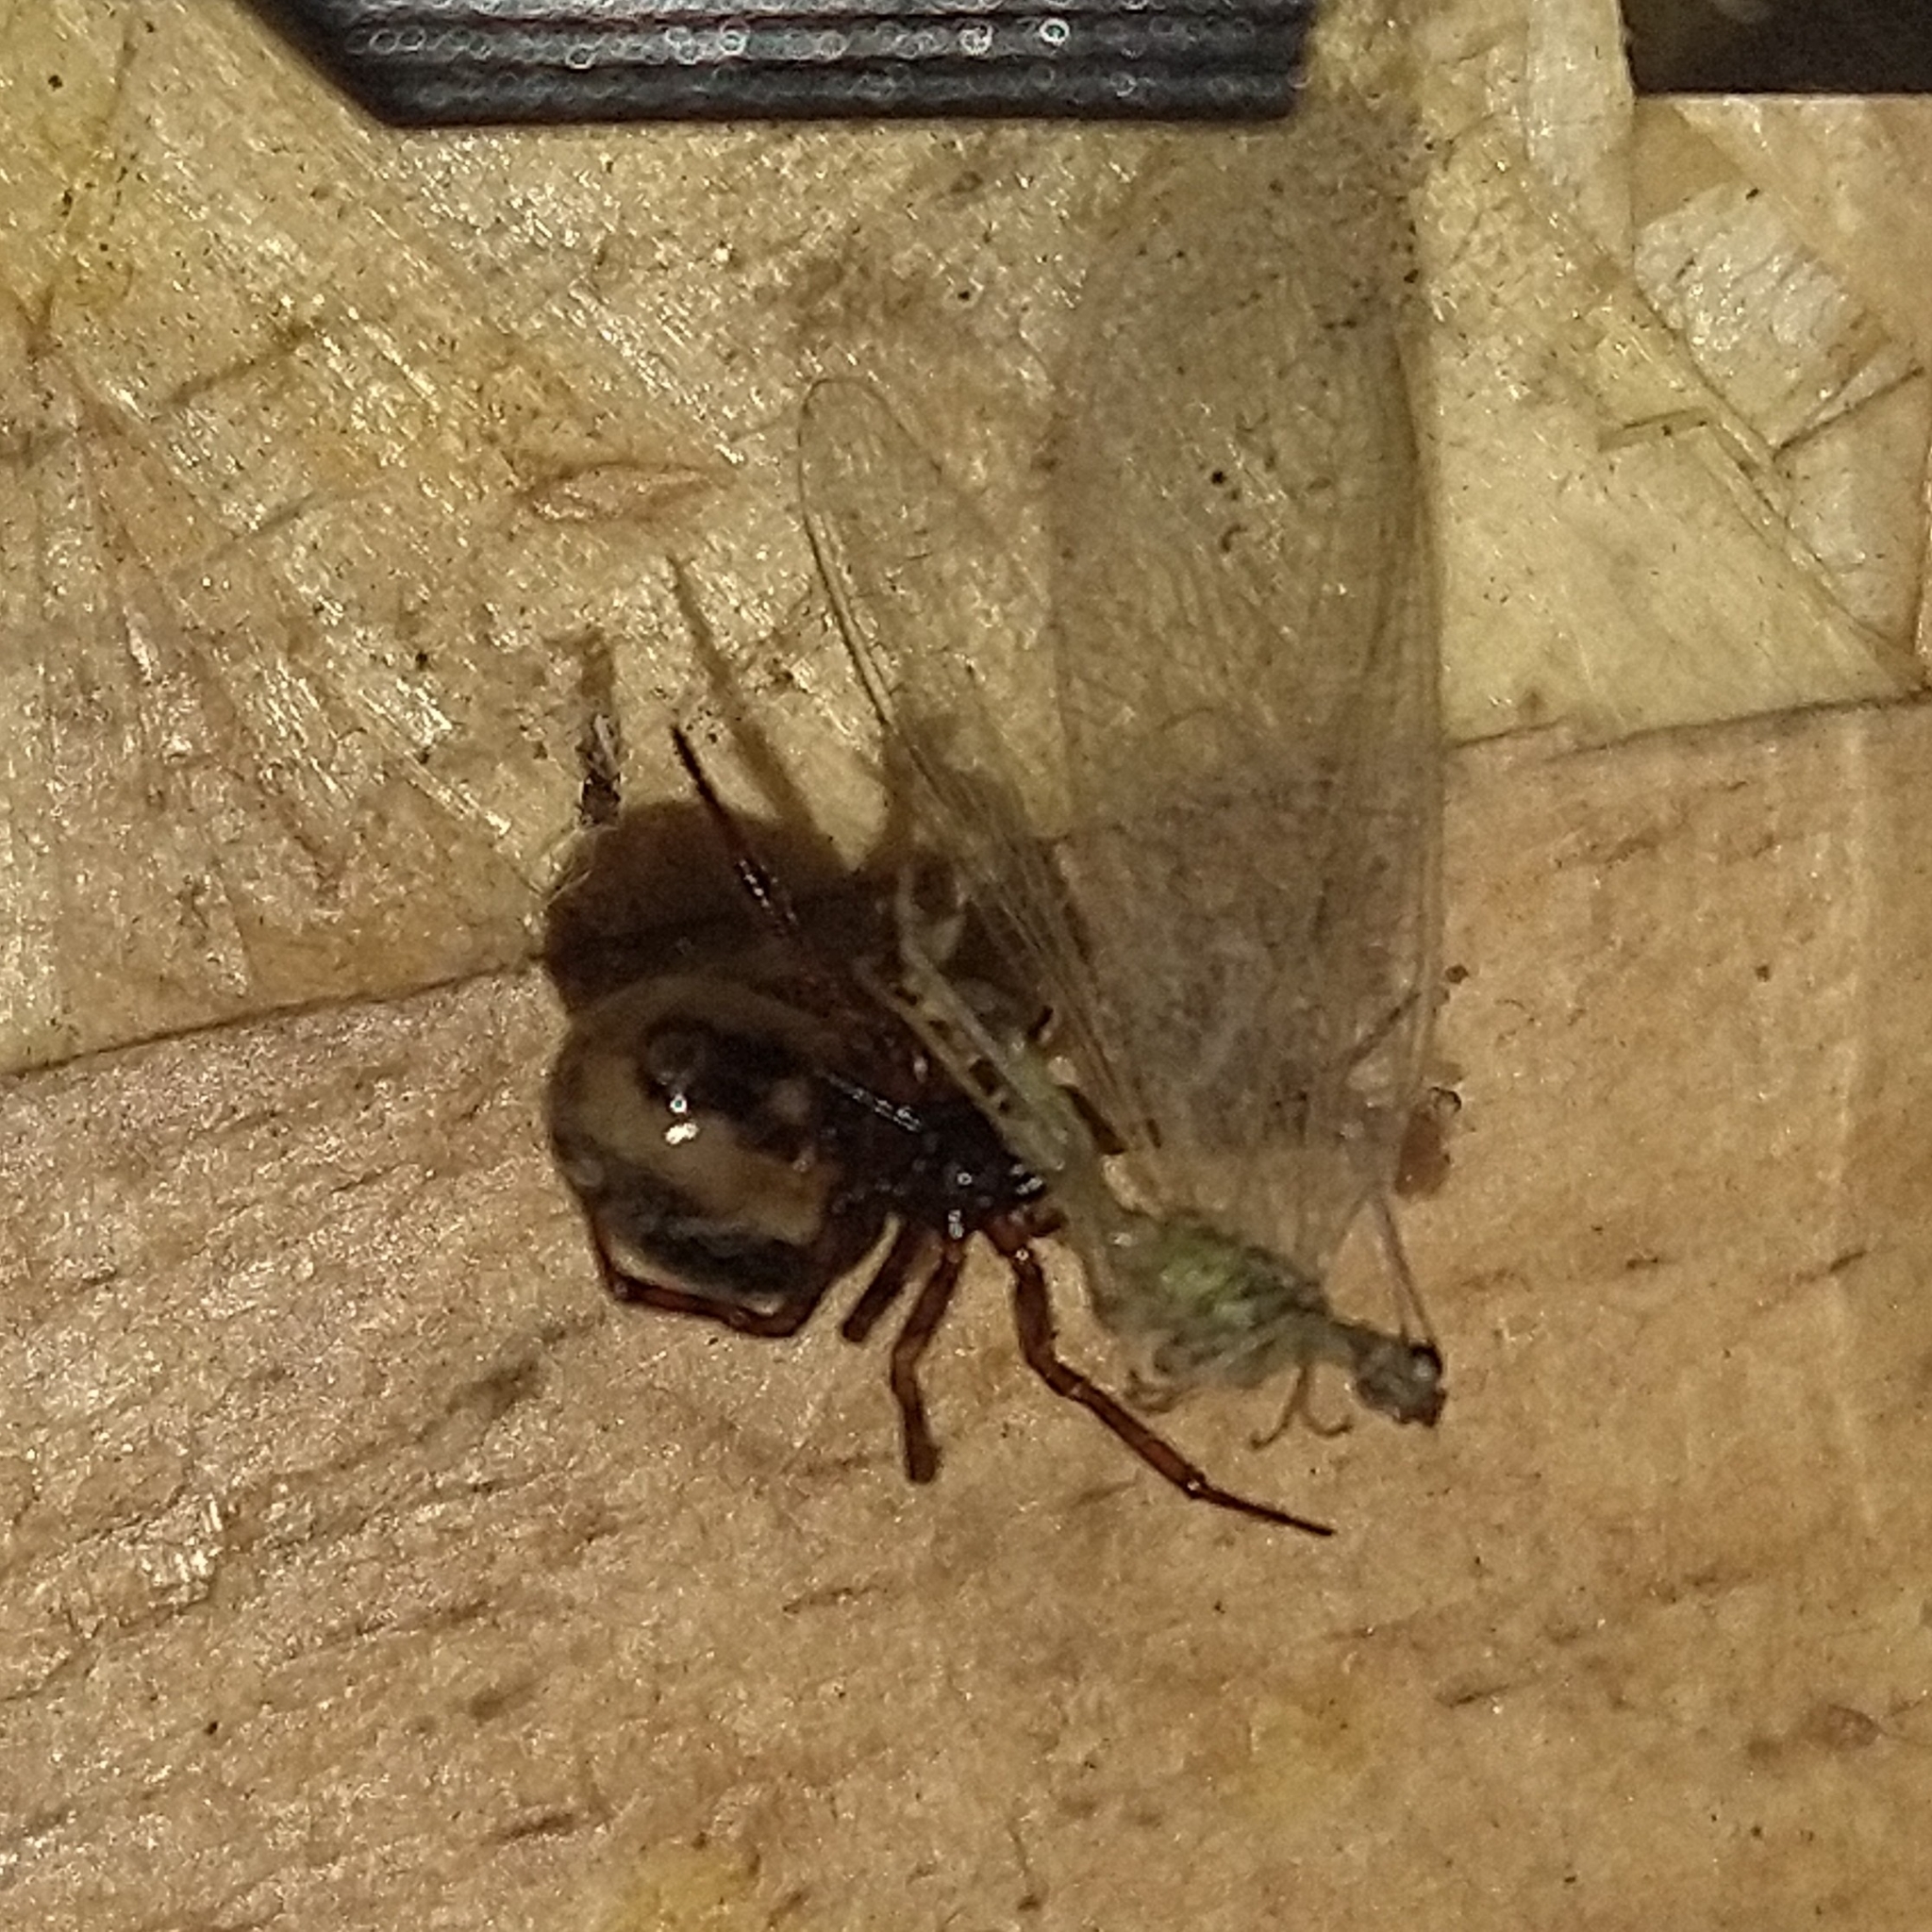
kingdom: Animalia
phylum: Arthropoda
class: Arachnida
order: Araneae
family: Theridiidae
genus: Steatoda
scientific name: Steatoda bipunctata
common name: False widow
